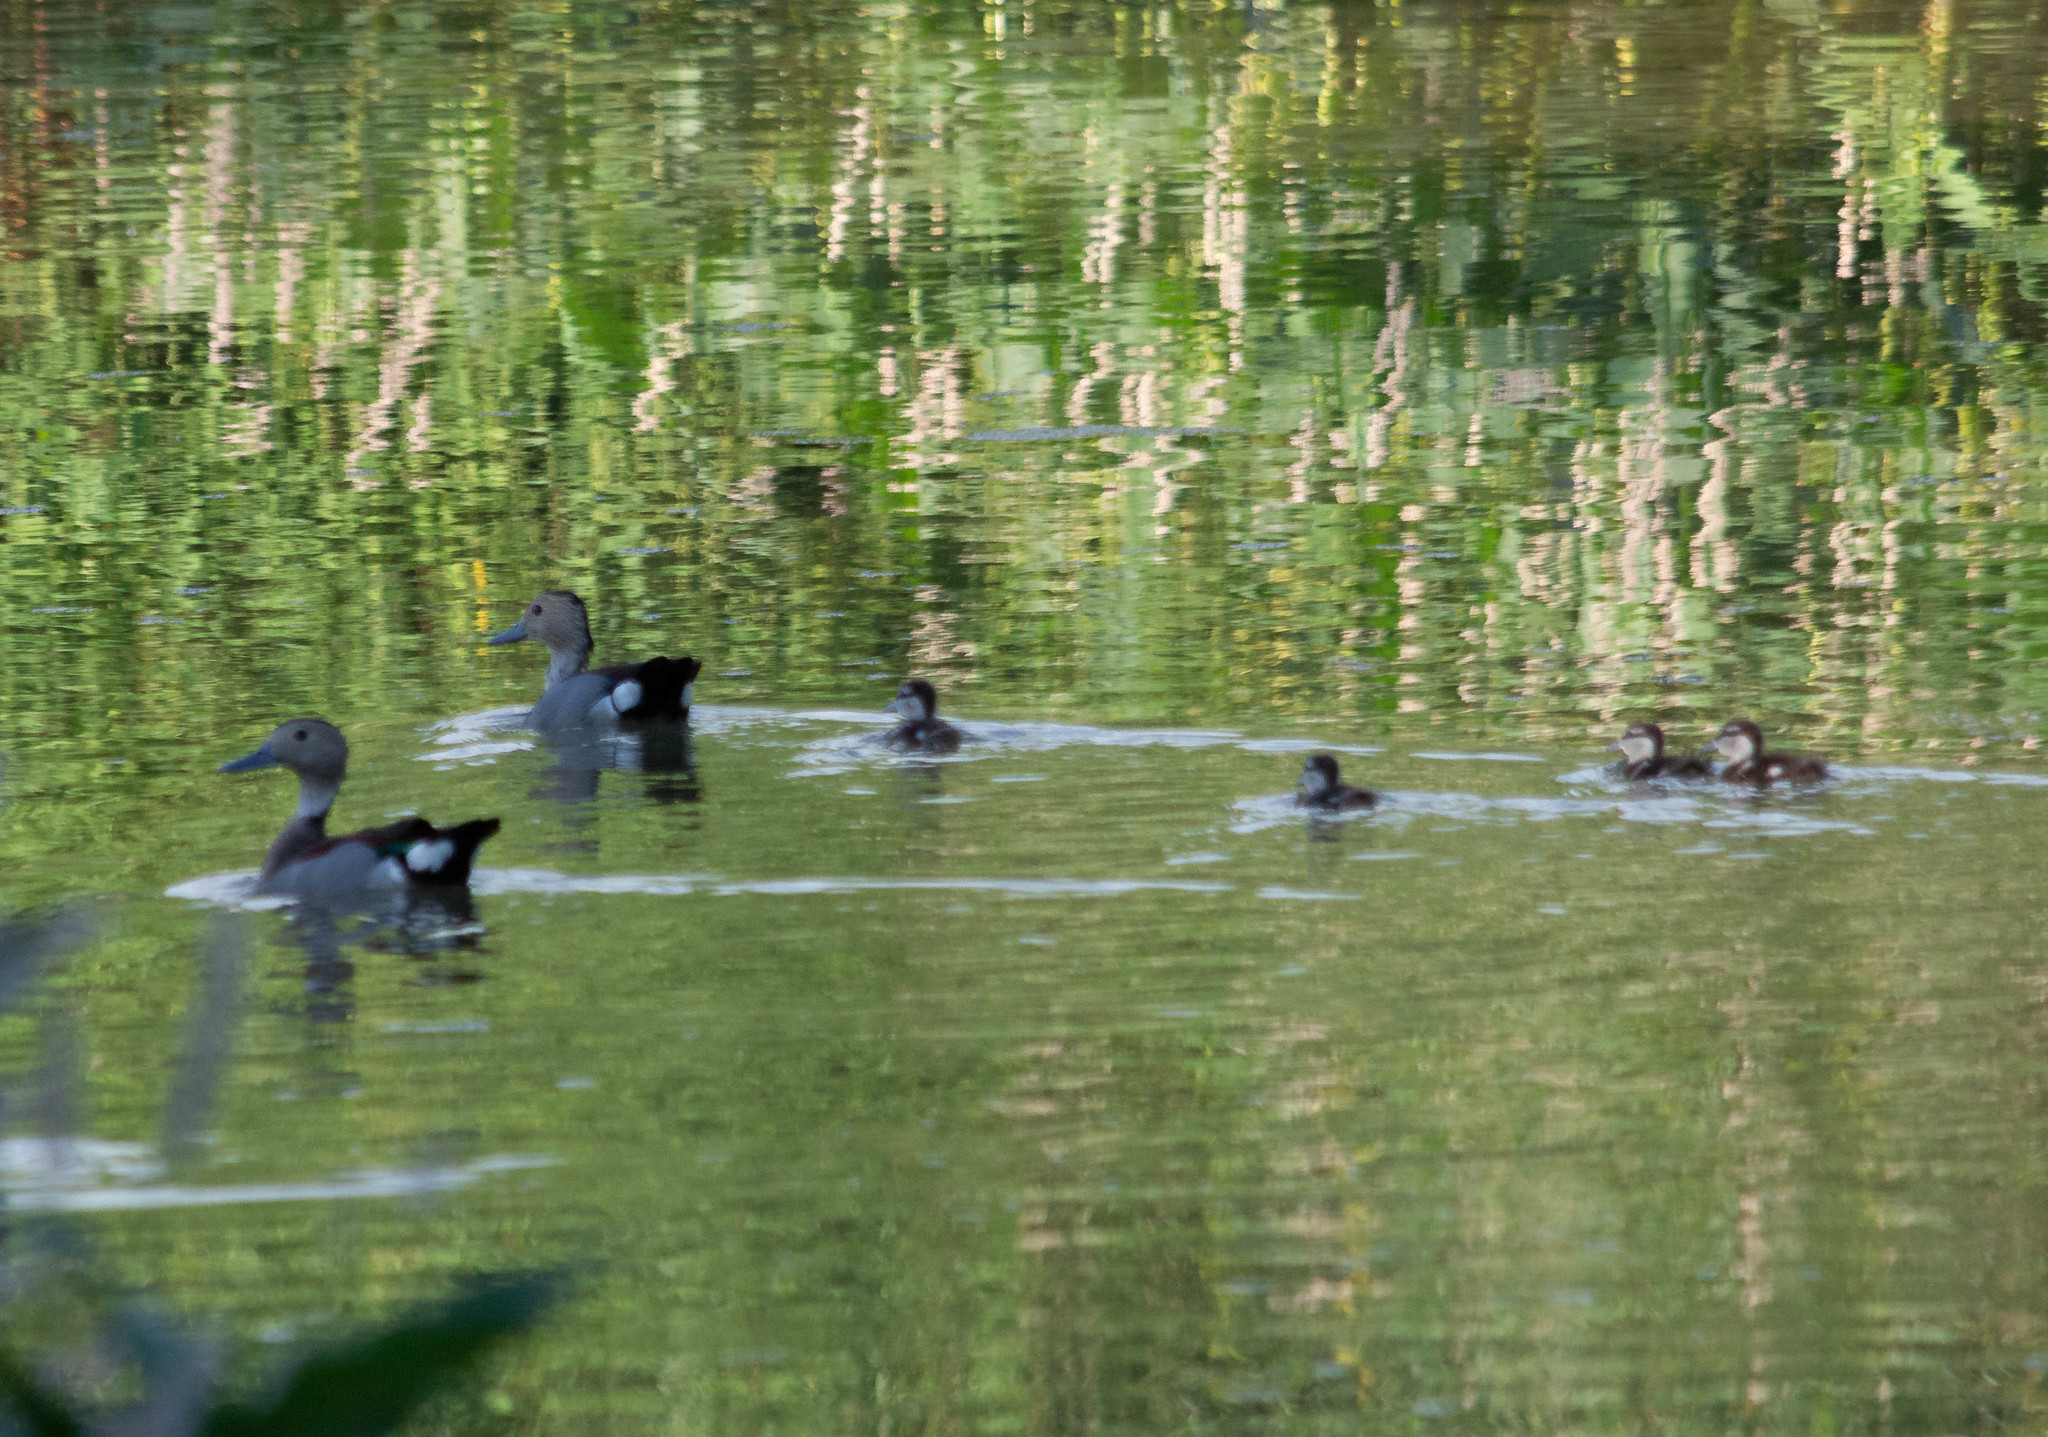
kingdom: Animalia
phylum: Chordata
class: Aves
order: Anseriformes
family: Anatidae
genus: Callonetta
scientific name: Callonetta leucophrys
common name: Ringed teal
